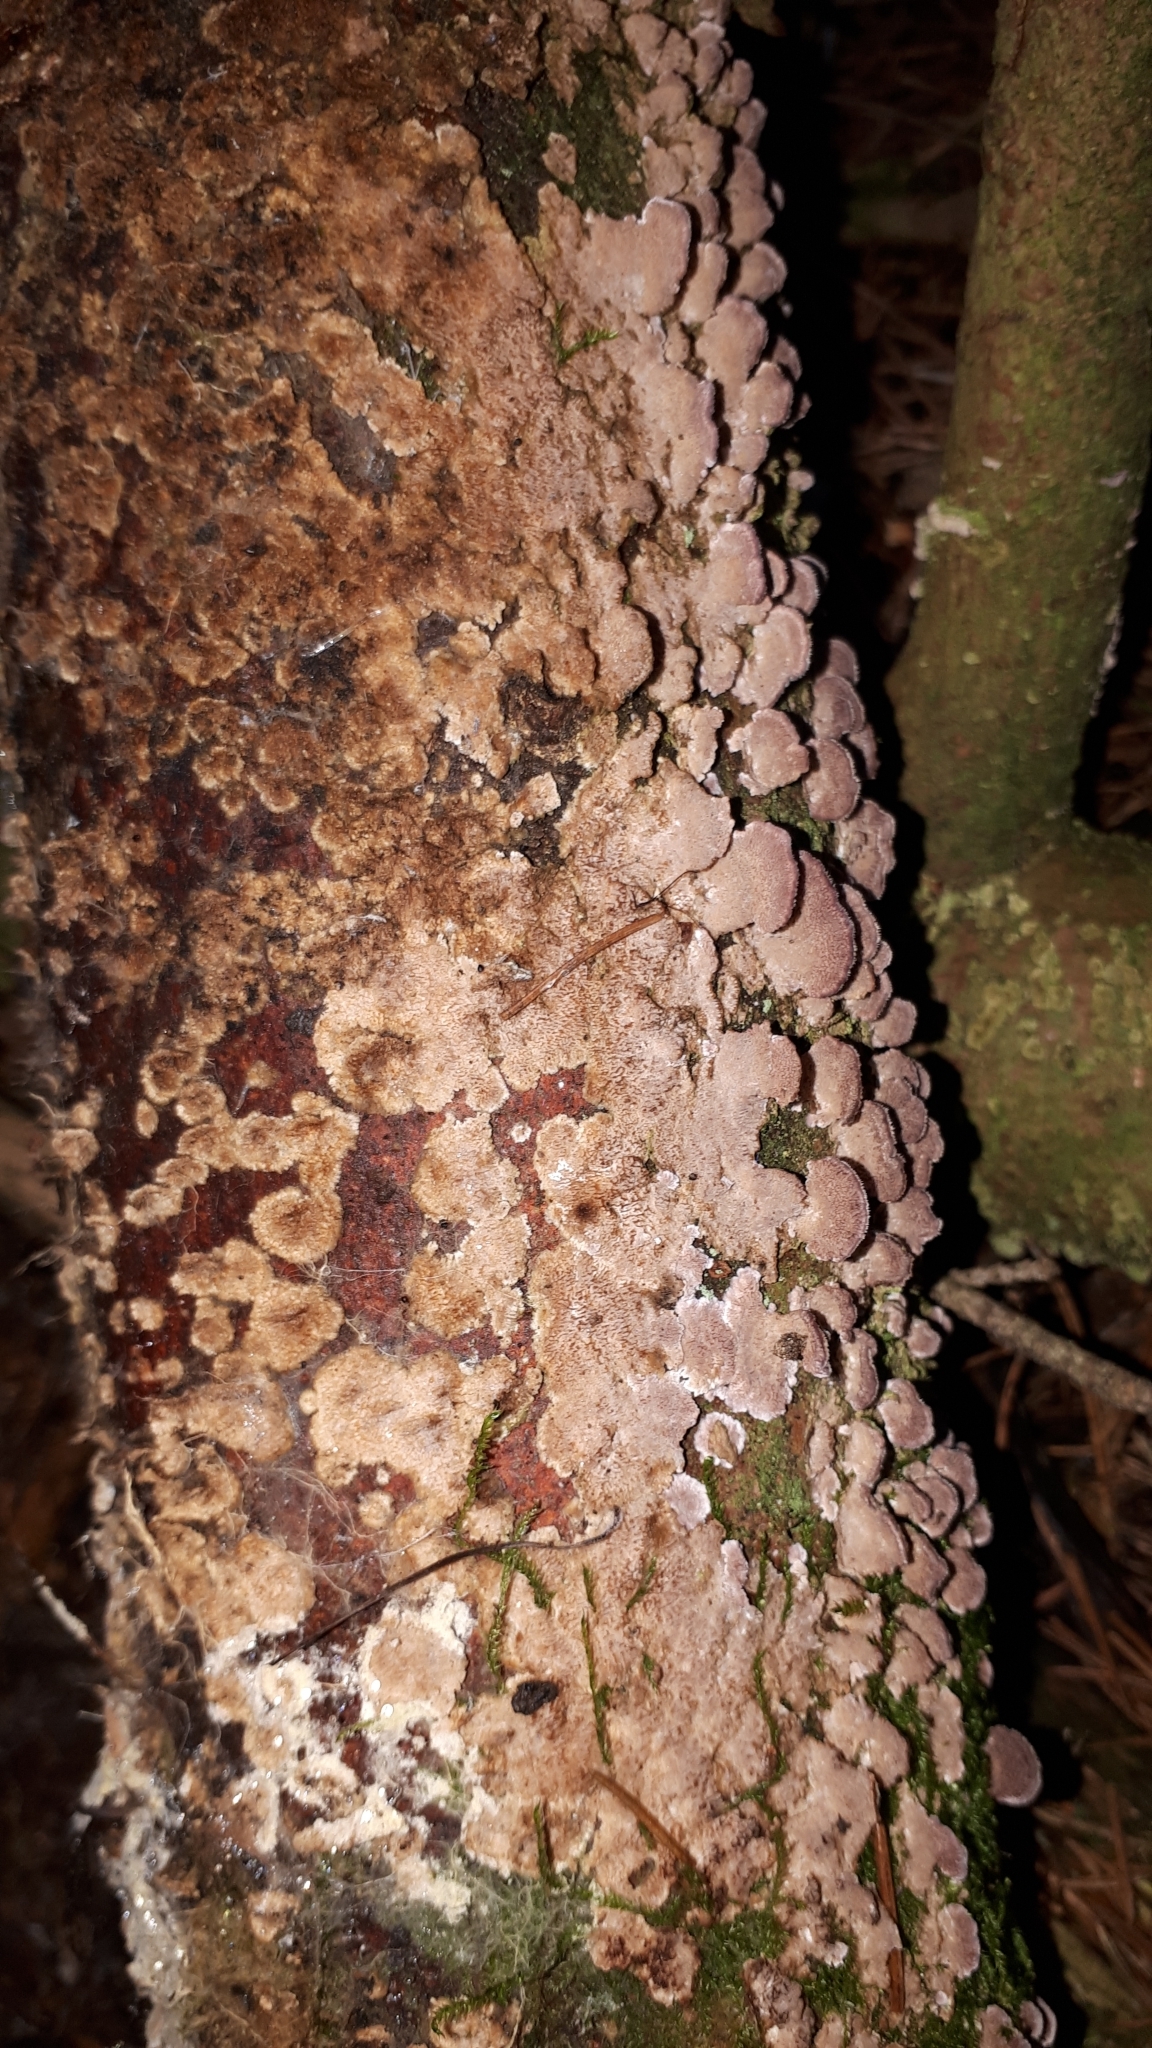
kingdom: Fungi
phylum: Basidiomycota
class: Agaricomycetes
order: Hymenochaetales
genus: Trichaptum
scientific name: Trichaptum abietinum
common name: Purplepore bracket
